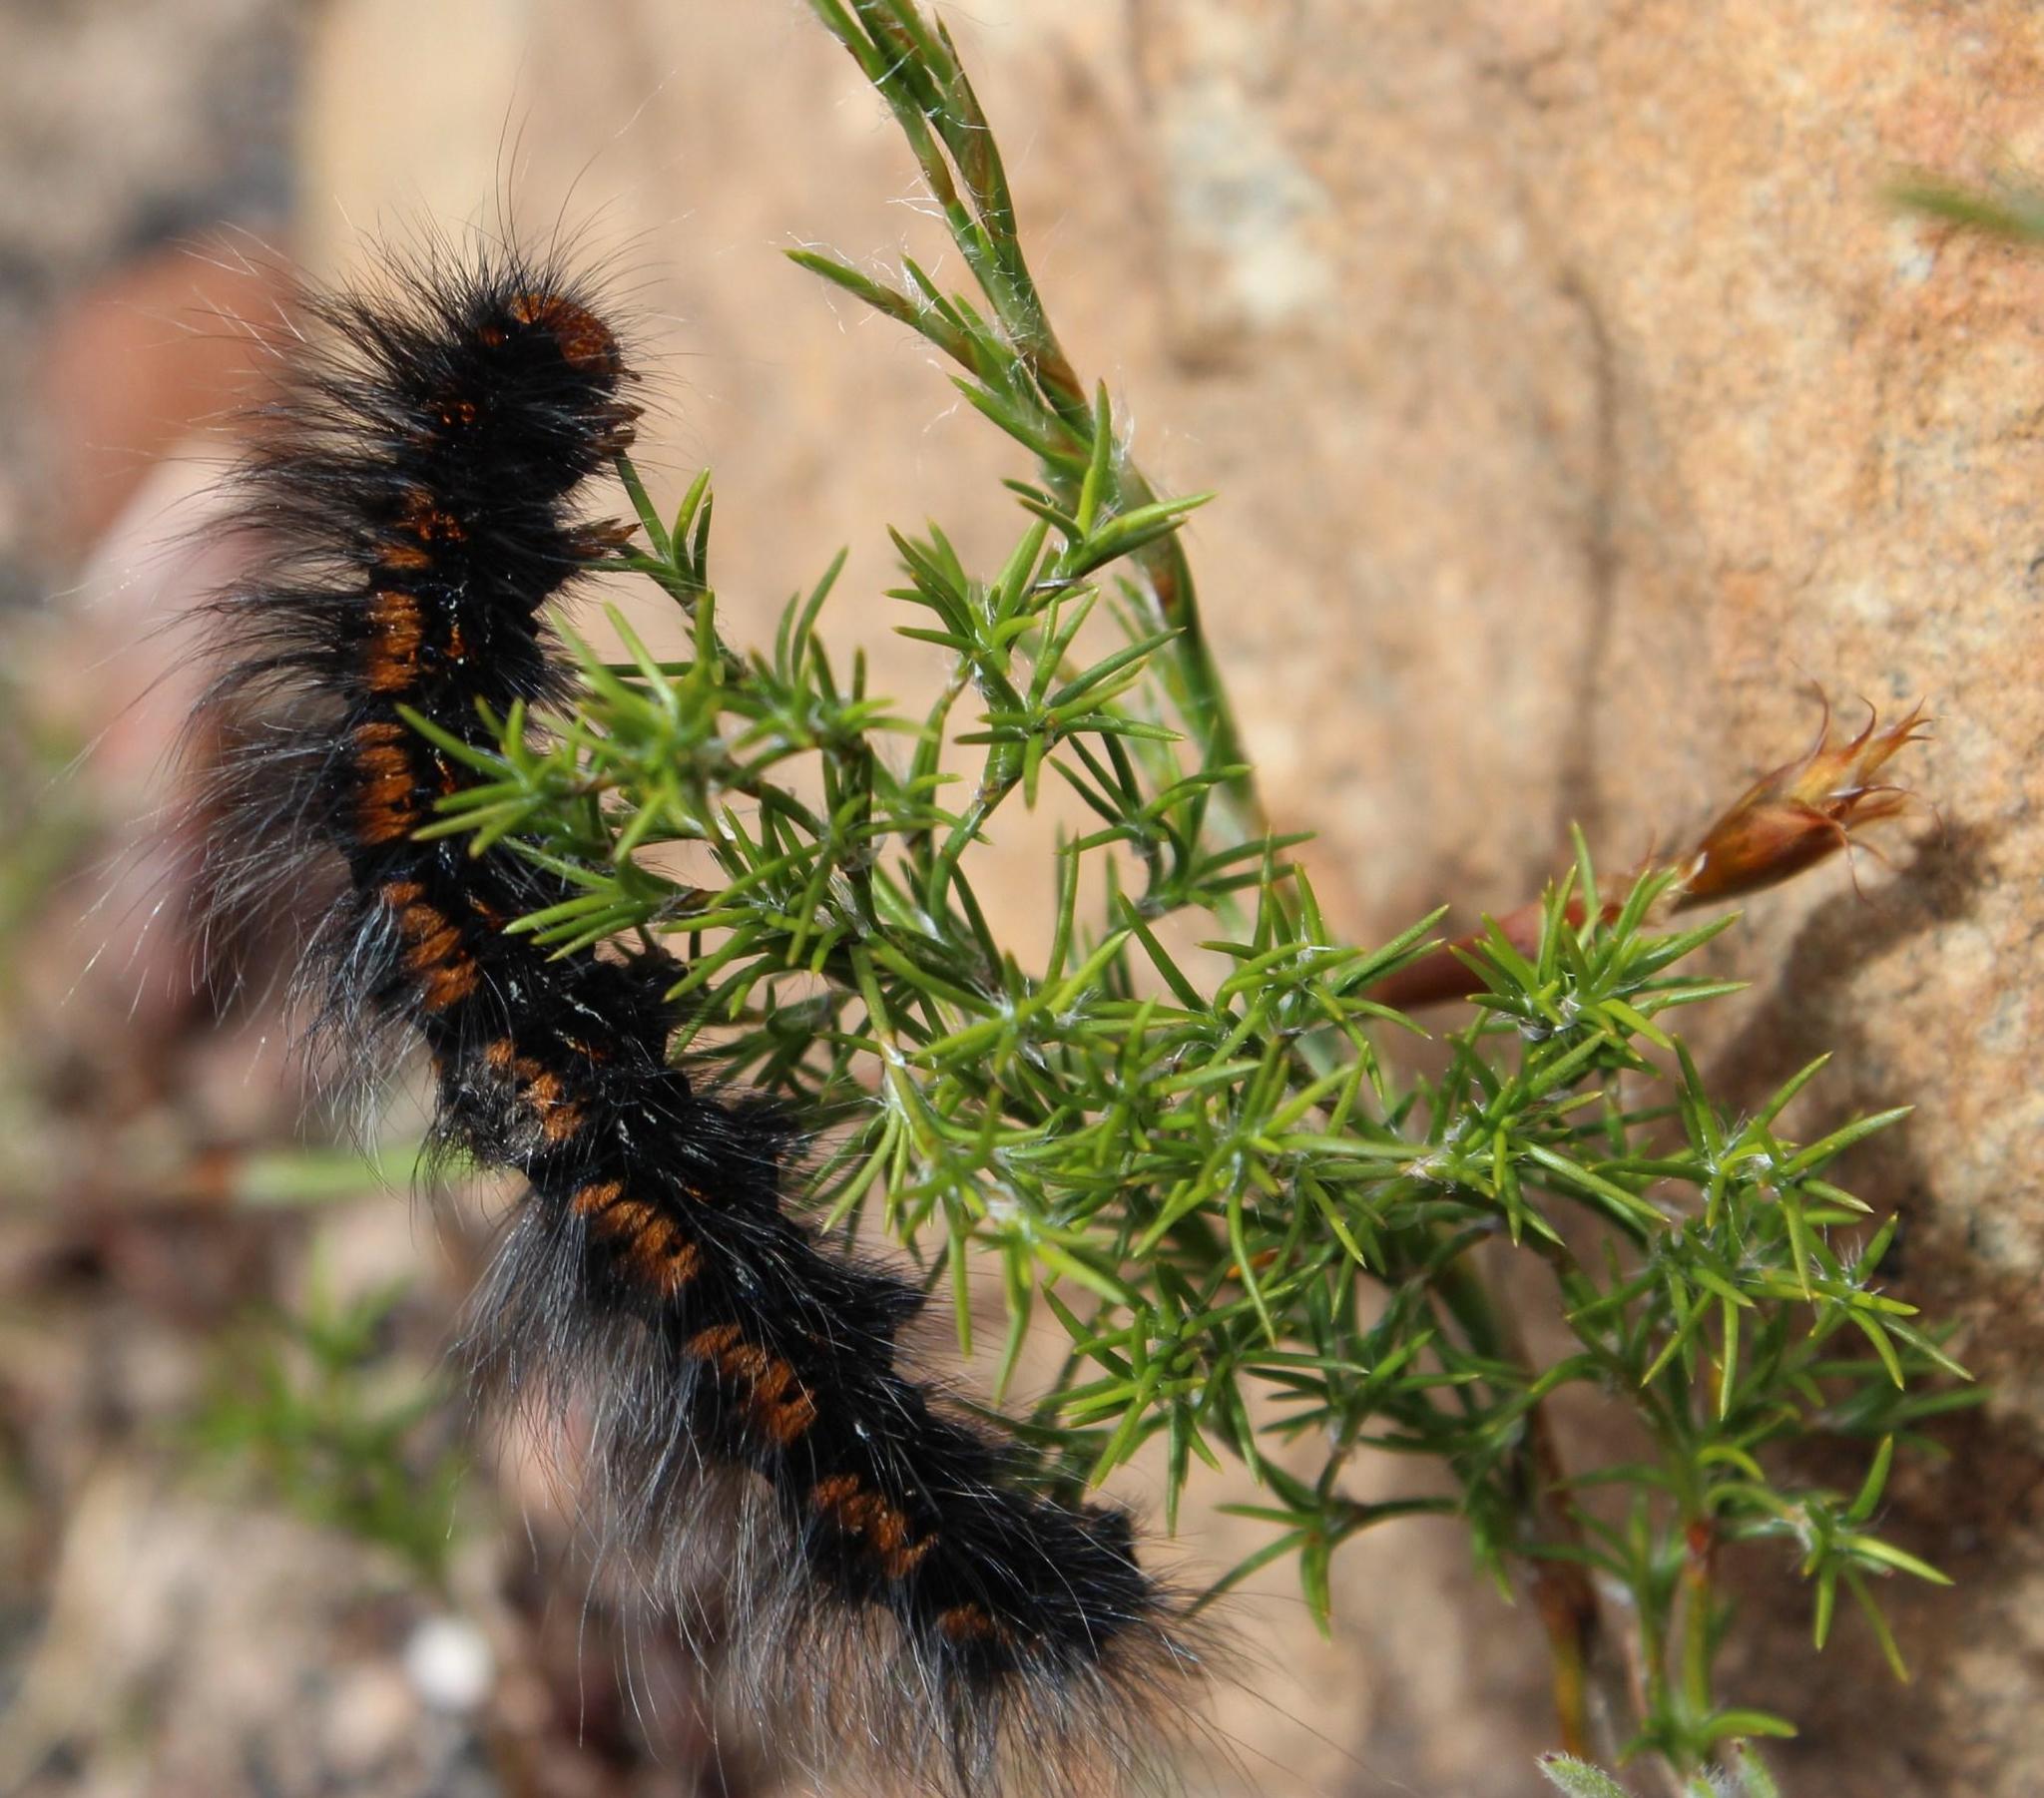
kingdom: Animalia
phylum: Arthropoda
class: Insecta
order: Lepidoptera
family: Lasiocampidae
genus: Mesocelis
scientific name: Mesocelis monticola
